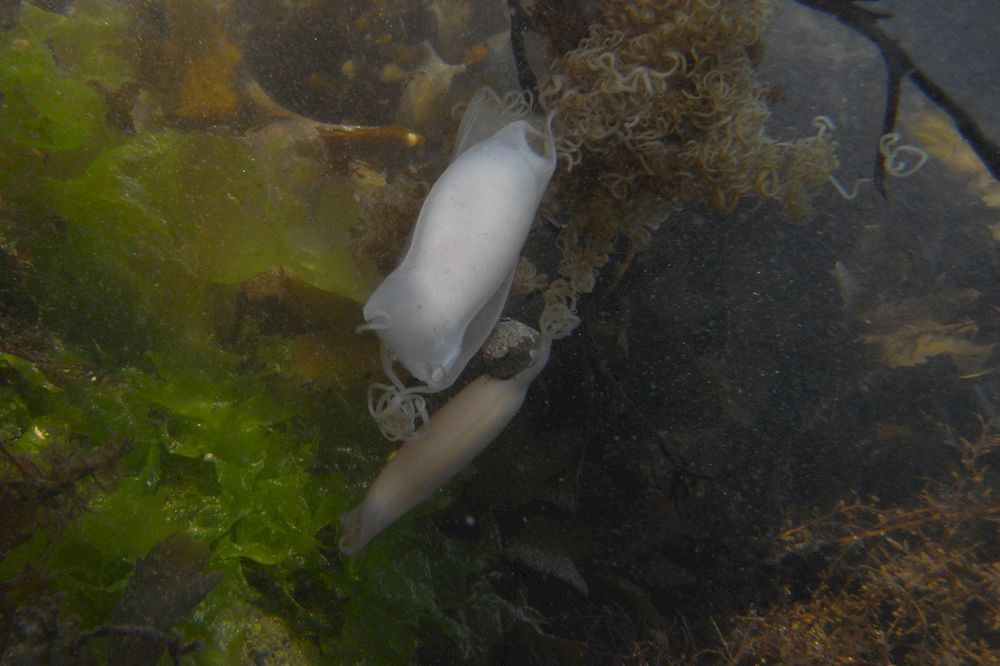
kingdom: Animalia
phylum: Chordata
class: Elasmobranchii
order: Carcharhiniformes
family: Scyliorhinidae
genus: Scyliorhinus
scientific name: Scyliorhinus canicula
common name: Lesser spotted dogfish
